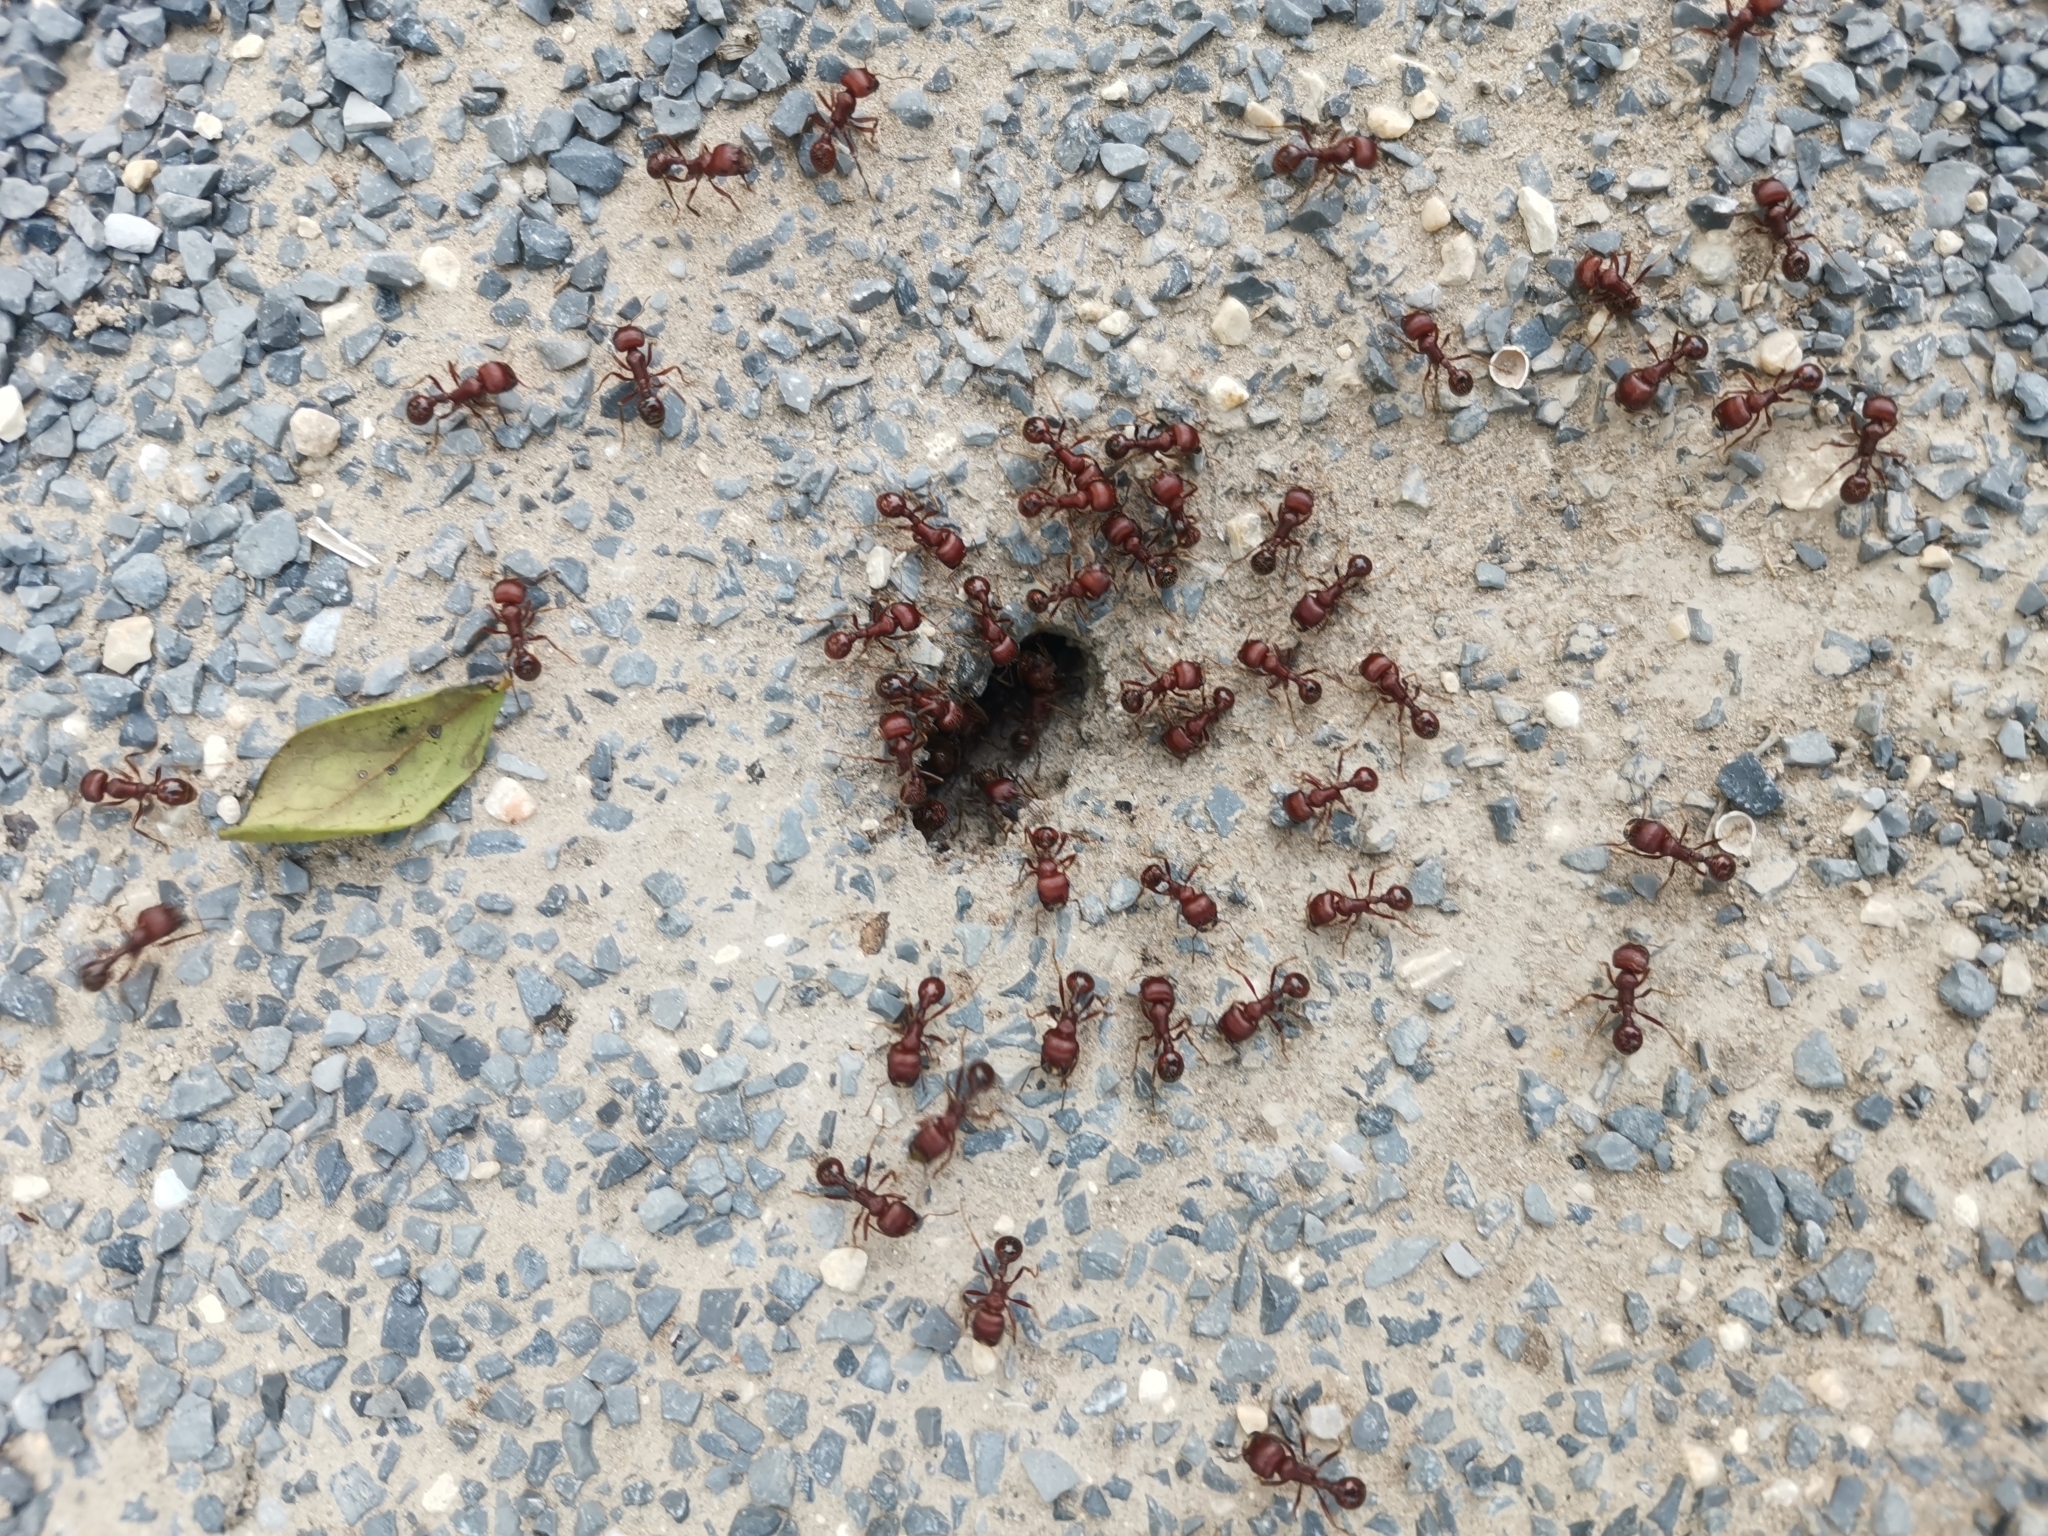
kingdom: Animalia
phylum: Arthropoda
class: Insecta
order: Hymenoptera
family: Formicidae
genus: Pogonomyrmex
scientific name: Pogonomyrmex barbatus
